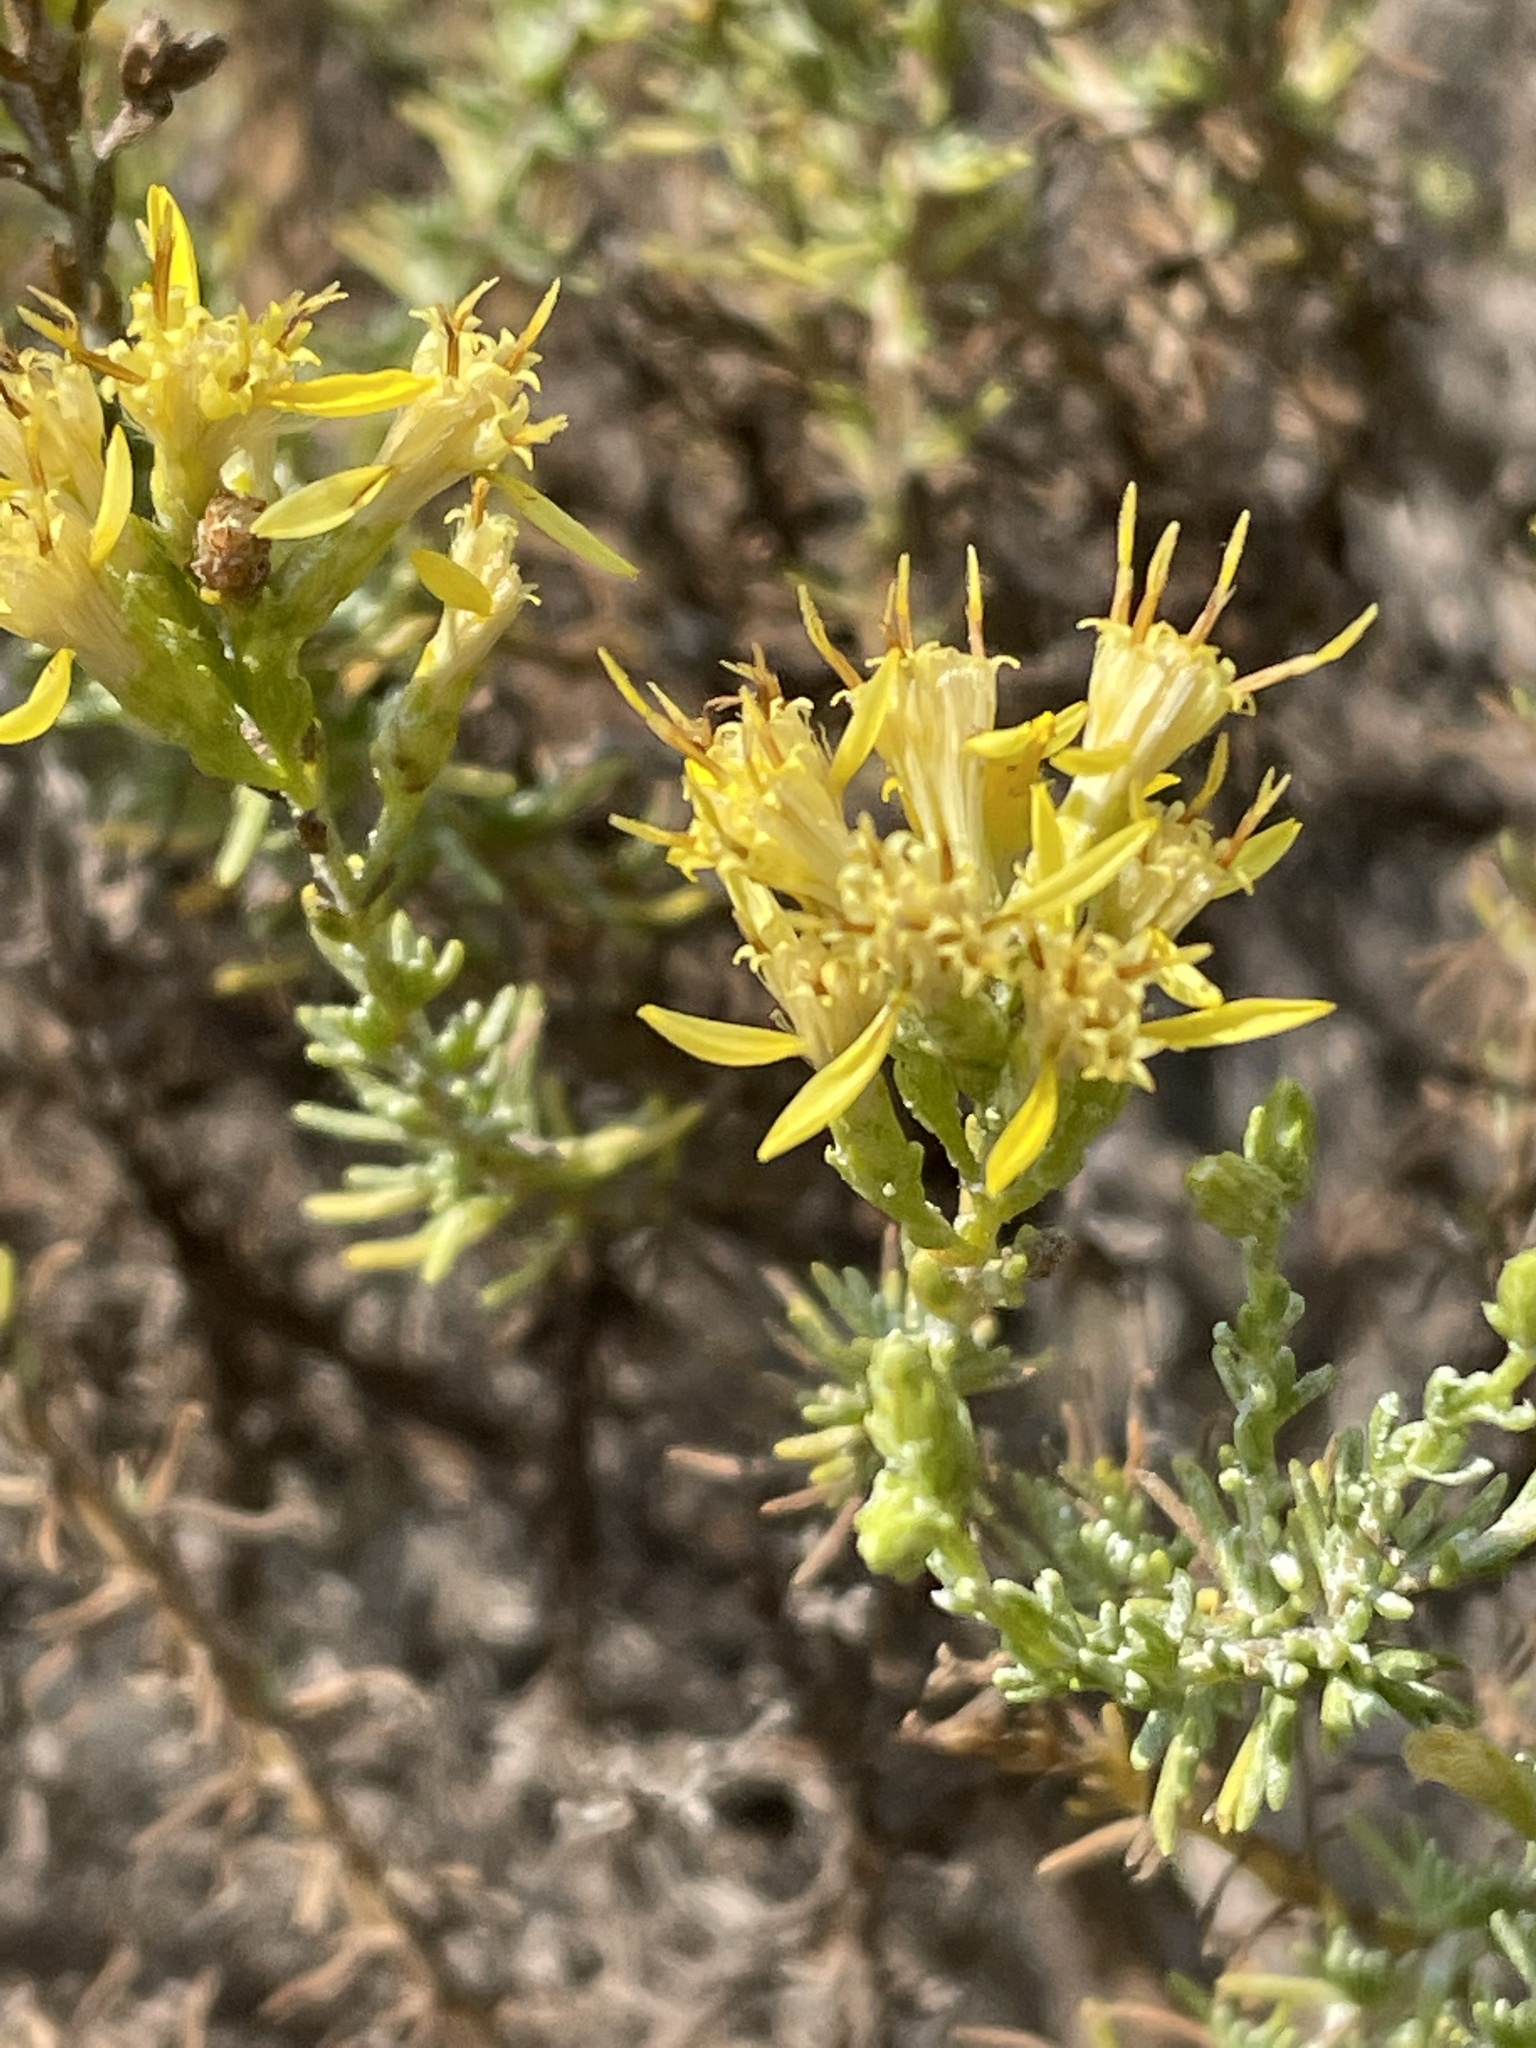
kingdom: Plantae
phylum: Tracheophyta
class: Magnoliopsida
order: Asterales
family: Asteraceae
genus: Ericameria
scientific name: Ericameria ericoides
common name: California goldenbush
